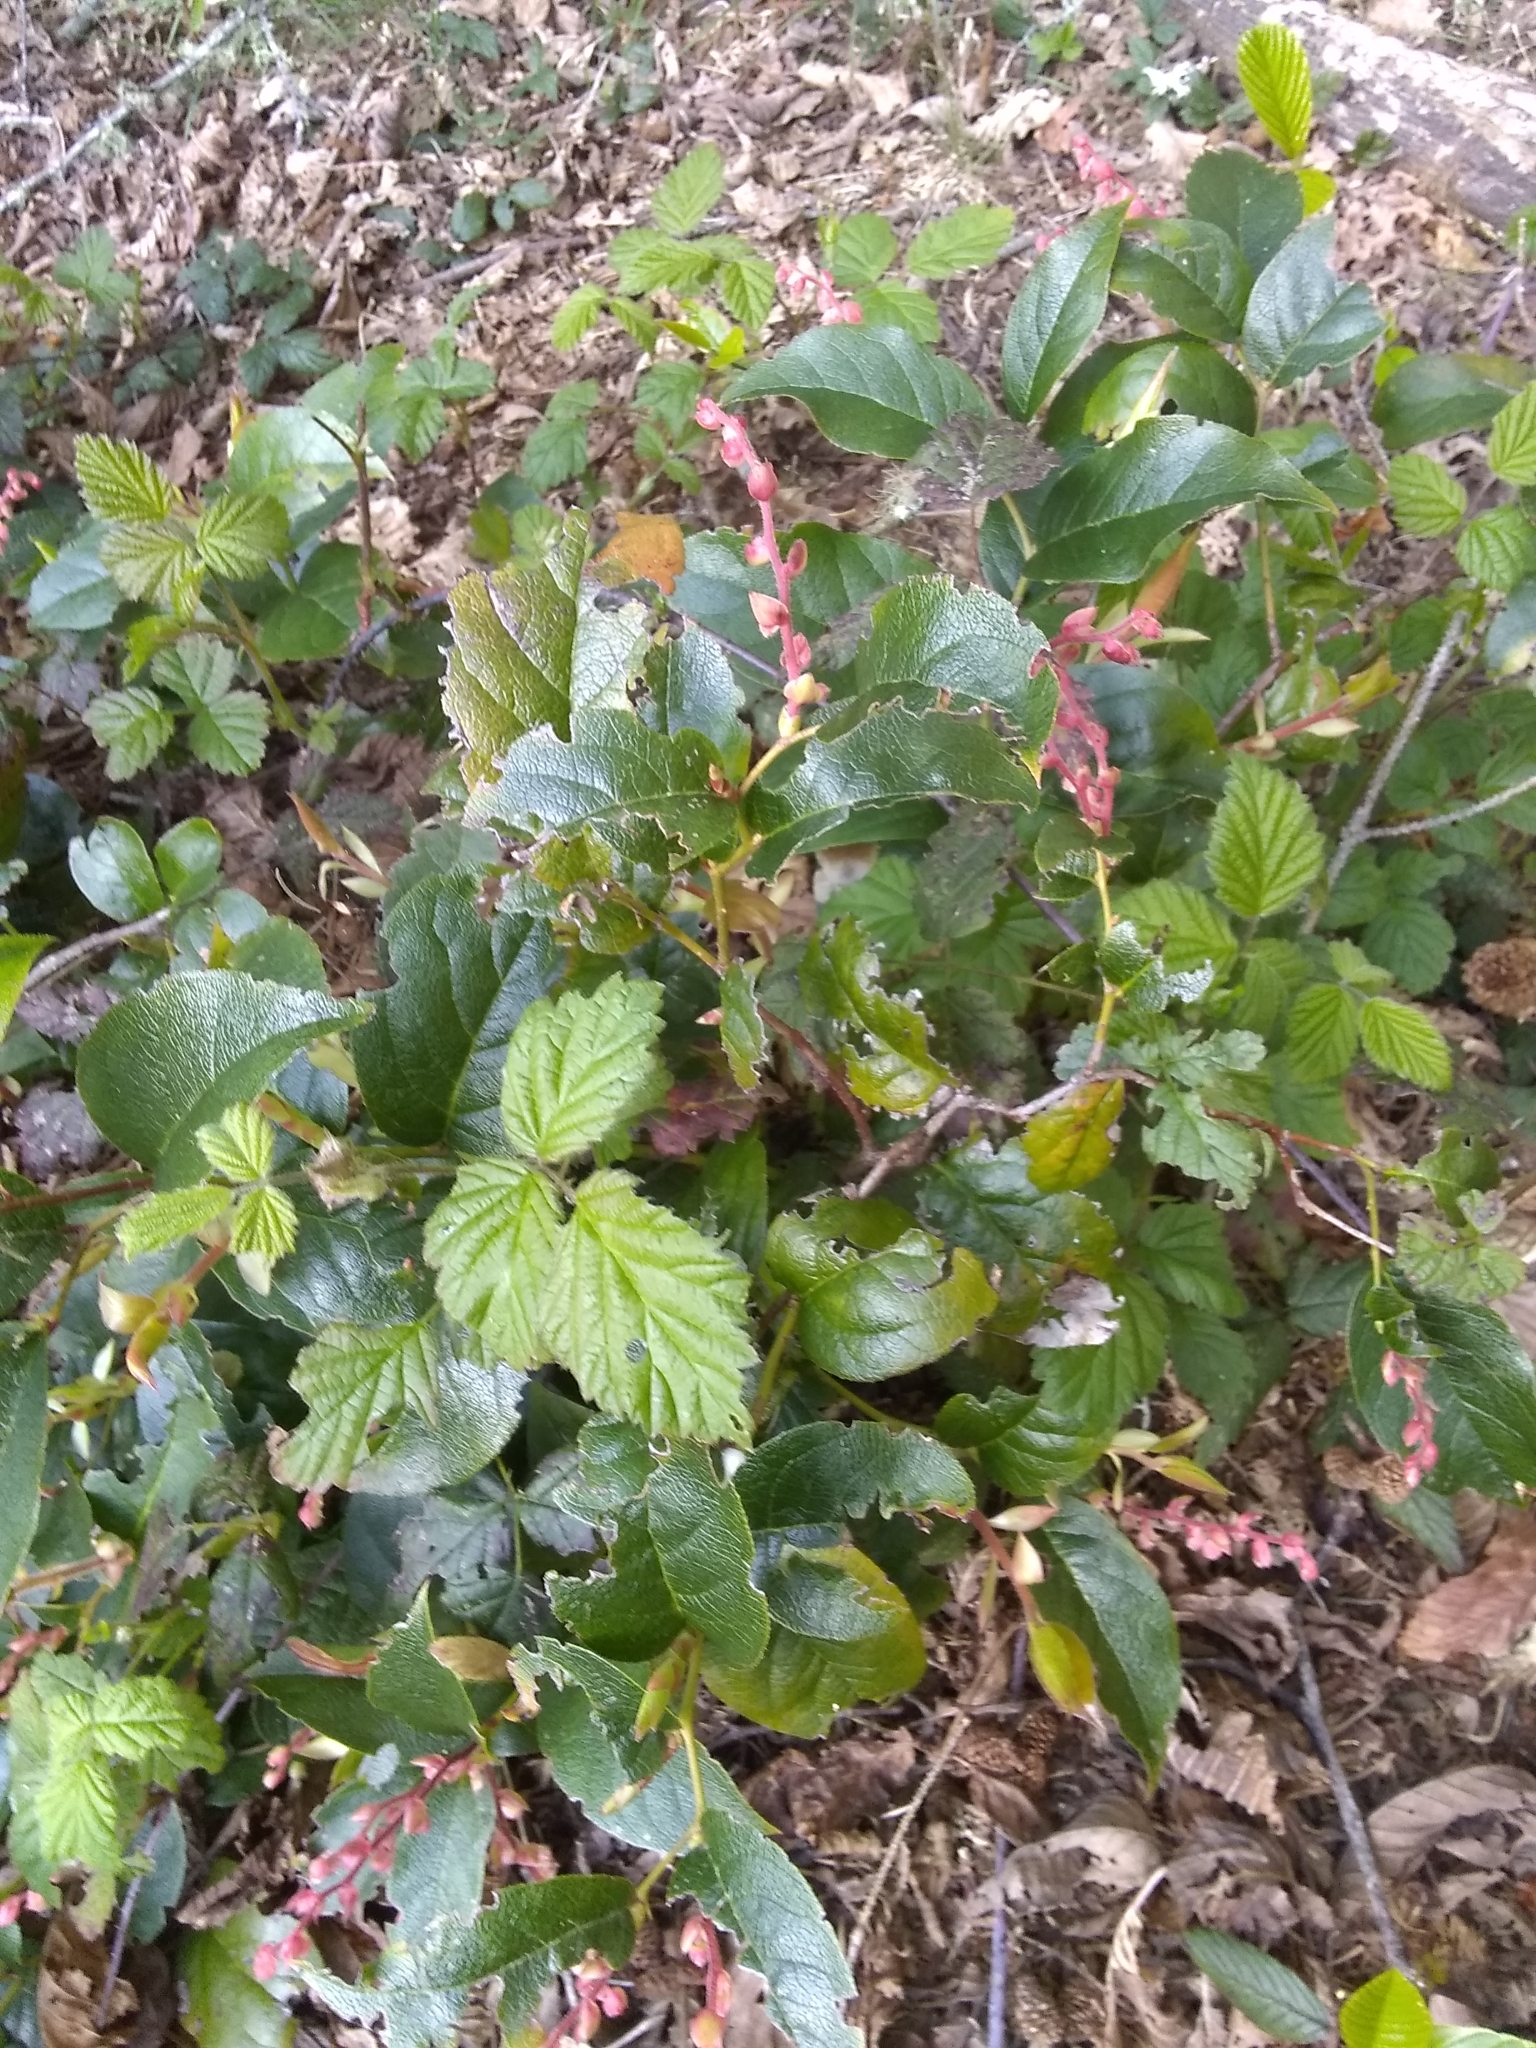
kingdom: Plantae
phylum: Tracheophyta
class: Magnoliopsida
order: Ericales
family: Ericaceae
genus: Gaultheria
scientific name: Gaultheria shallon
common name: Shallon
